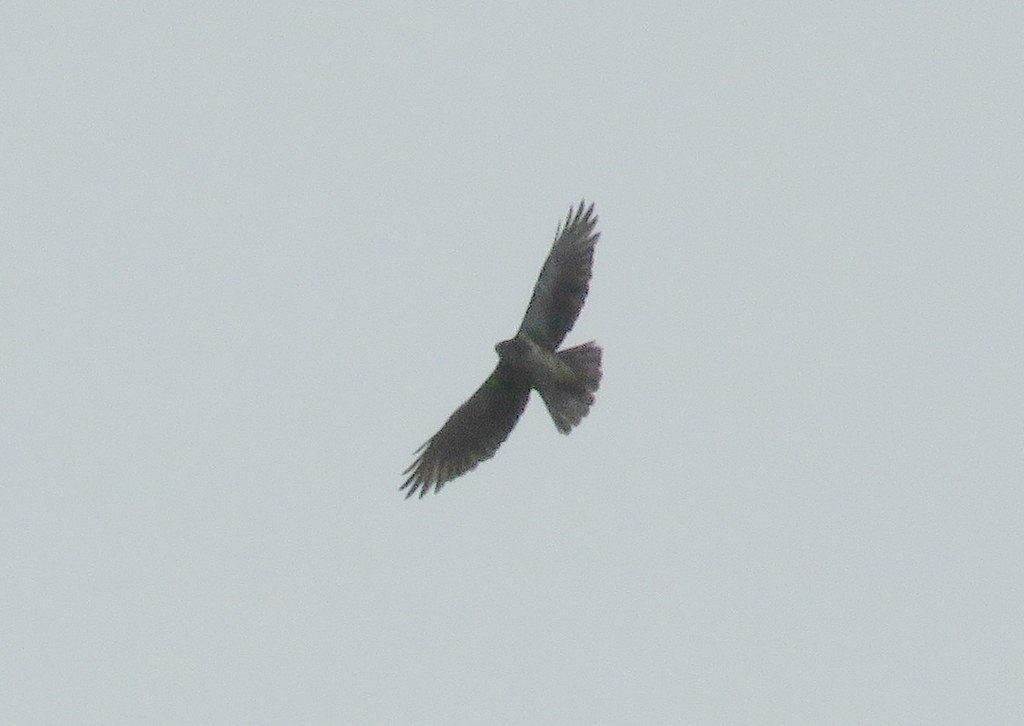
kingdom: Animalia
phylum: Chordata
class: Aves
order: Accipitriformes
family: Accipitridae
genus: Buteo
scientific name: Buteo albigula
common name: White-throated hawk
